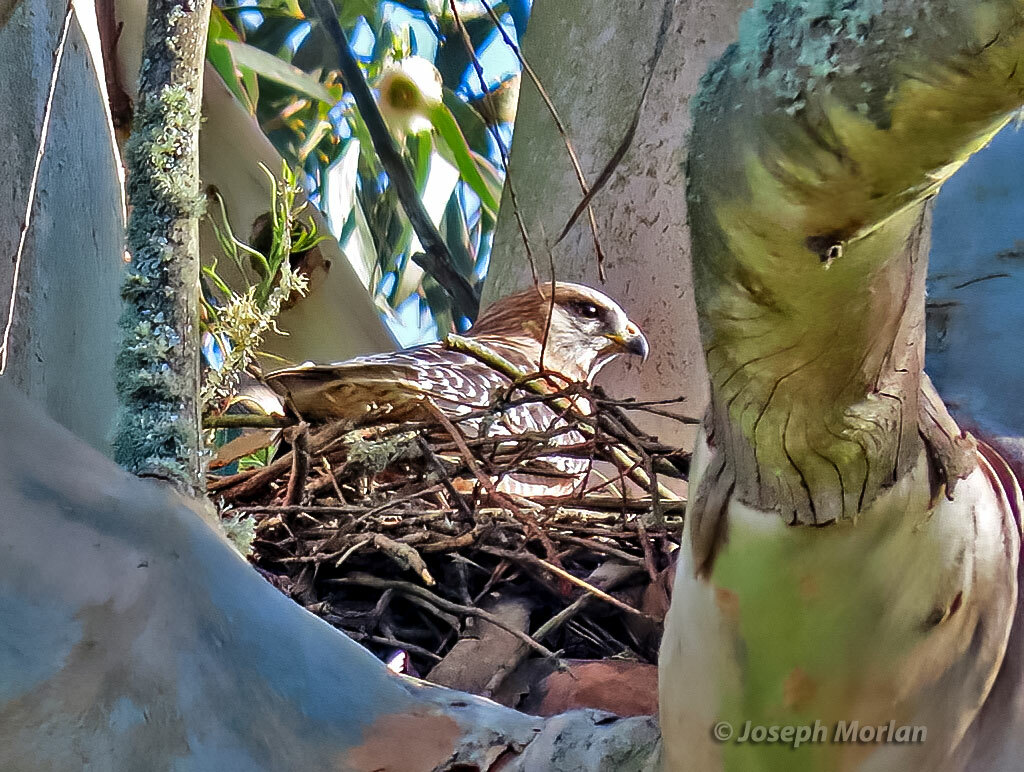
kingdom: Animalia
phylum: Chordata
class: Aves
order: Accipitriformes
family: Accipitridae
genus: Buteo
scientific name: Buteo lineatus
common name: Red-shouldered hawk
